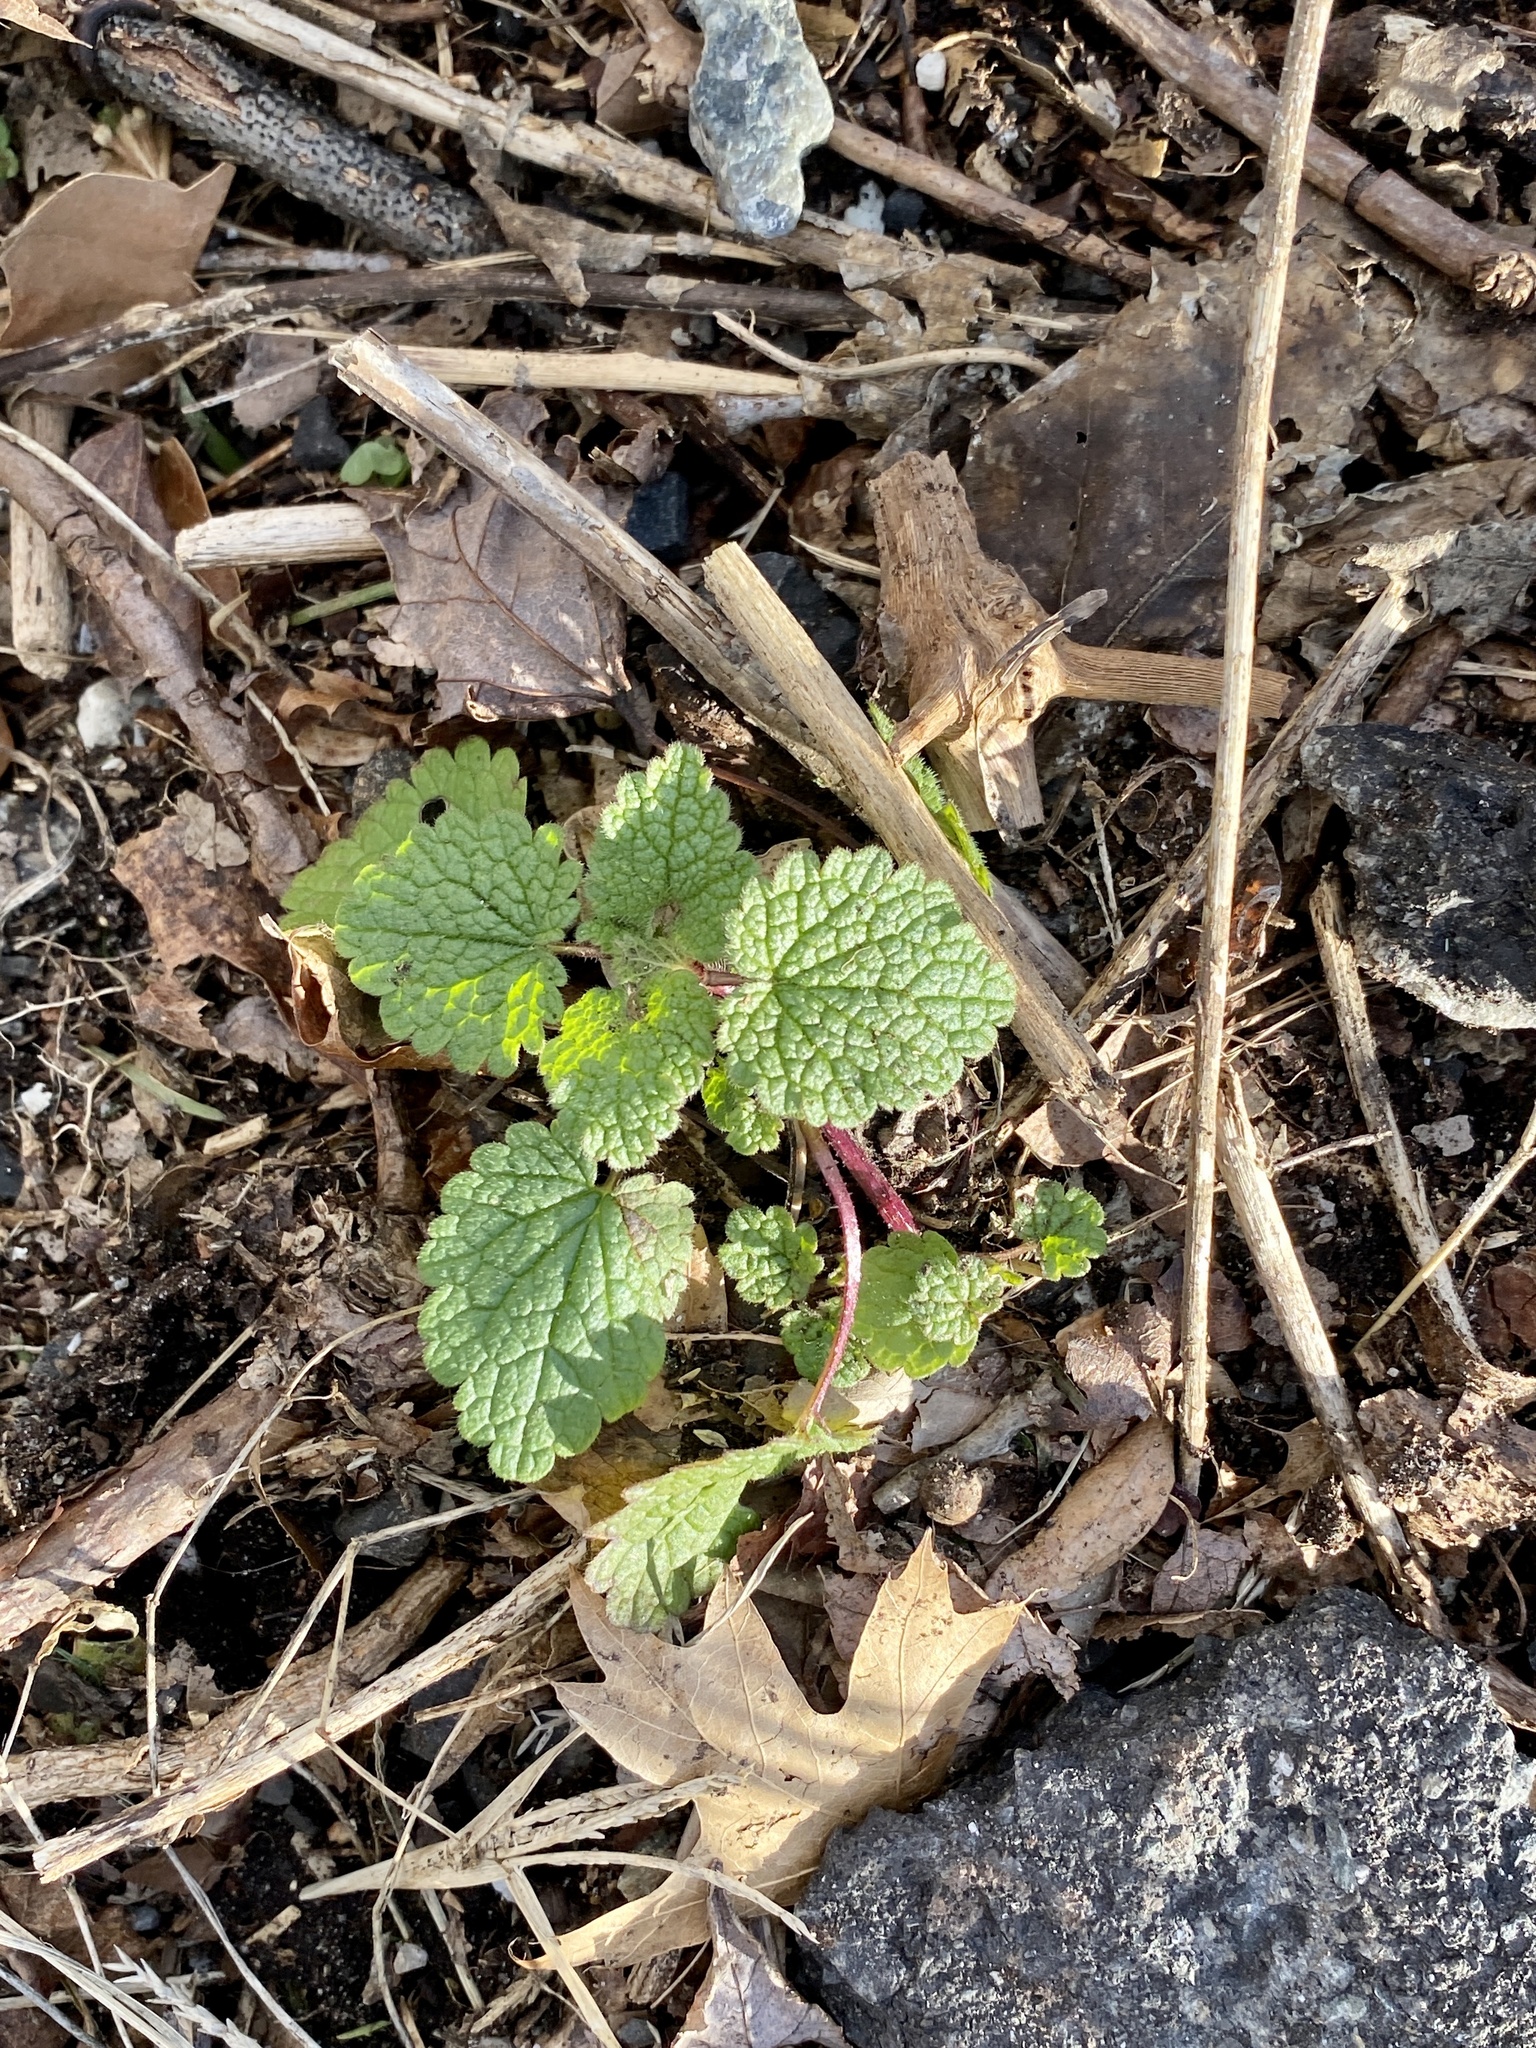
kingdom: Plantae
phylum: Tracheophyta
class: Magnoliopsida
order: Lamiales
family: Lamiaceae
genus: Lamium
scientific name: Lamium purpureum
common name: Red dead-nettle
